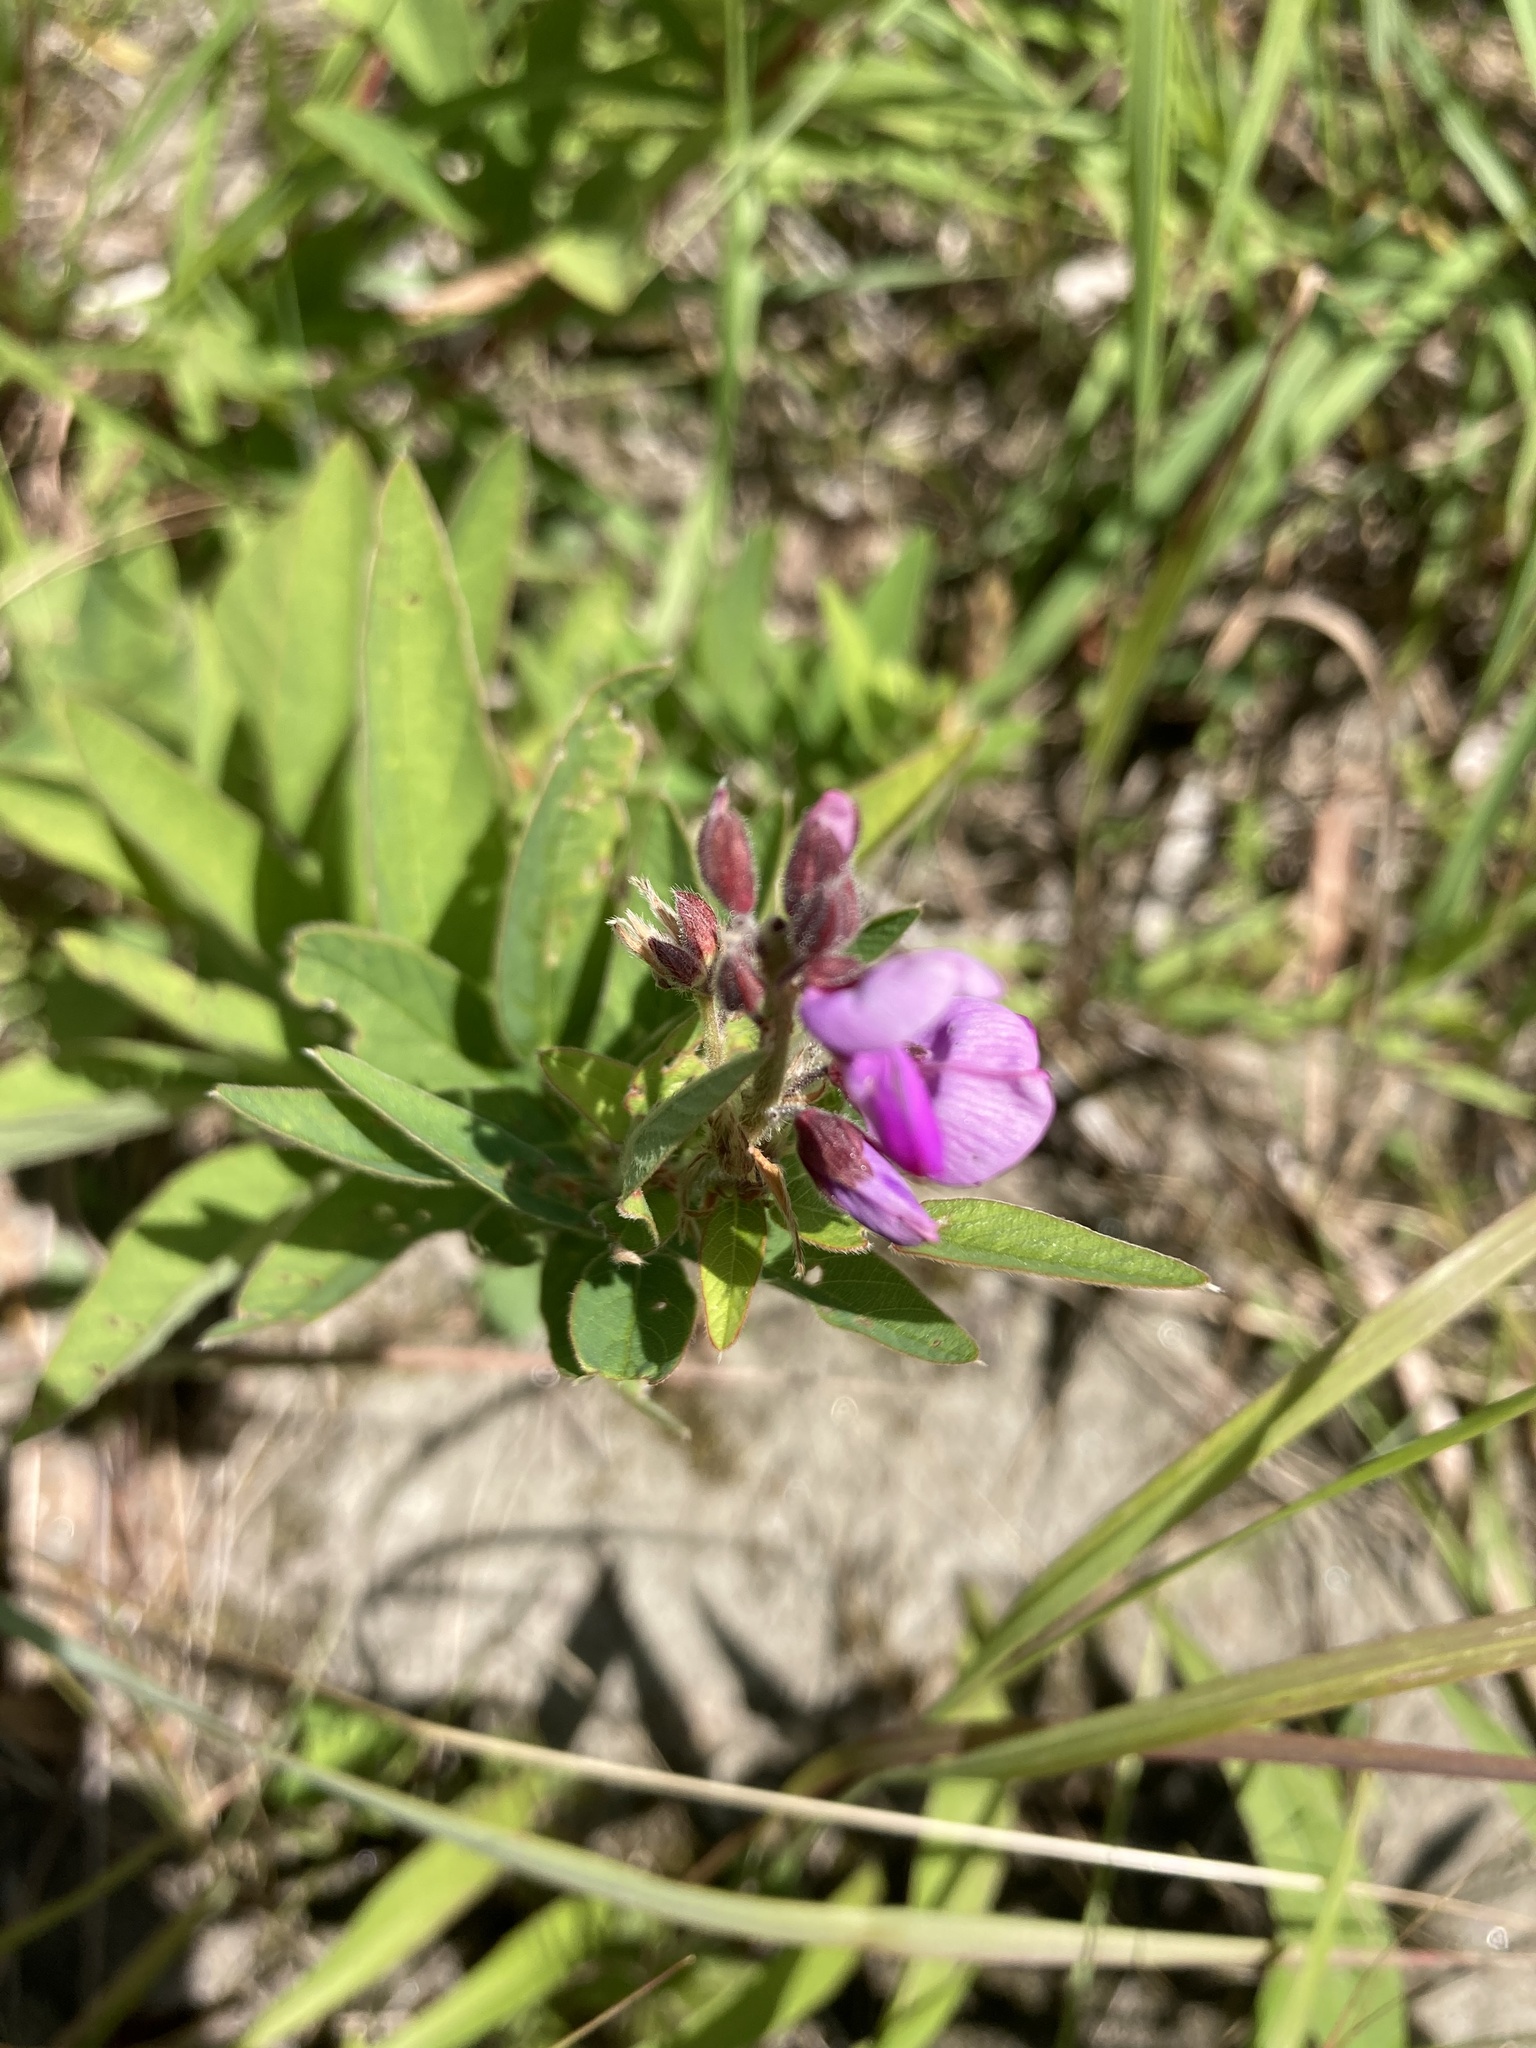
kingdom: Plantae
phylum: Tracheophyta
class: Magnoliopsida
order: Fabales
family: Fabaceae
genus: Desmodium
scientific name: Desmodium canadense
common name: Canada tick-trefoil
